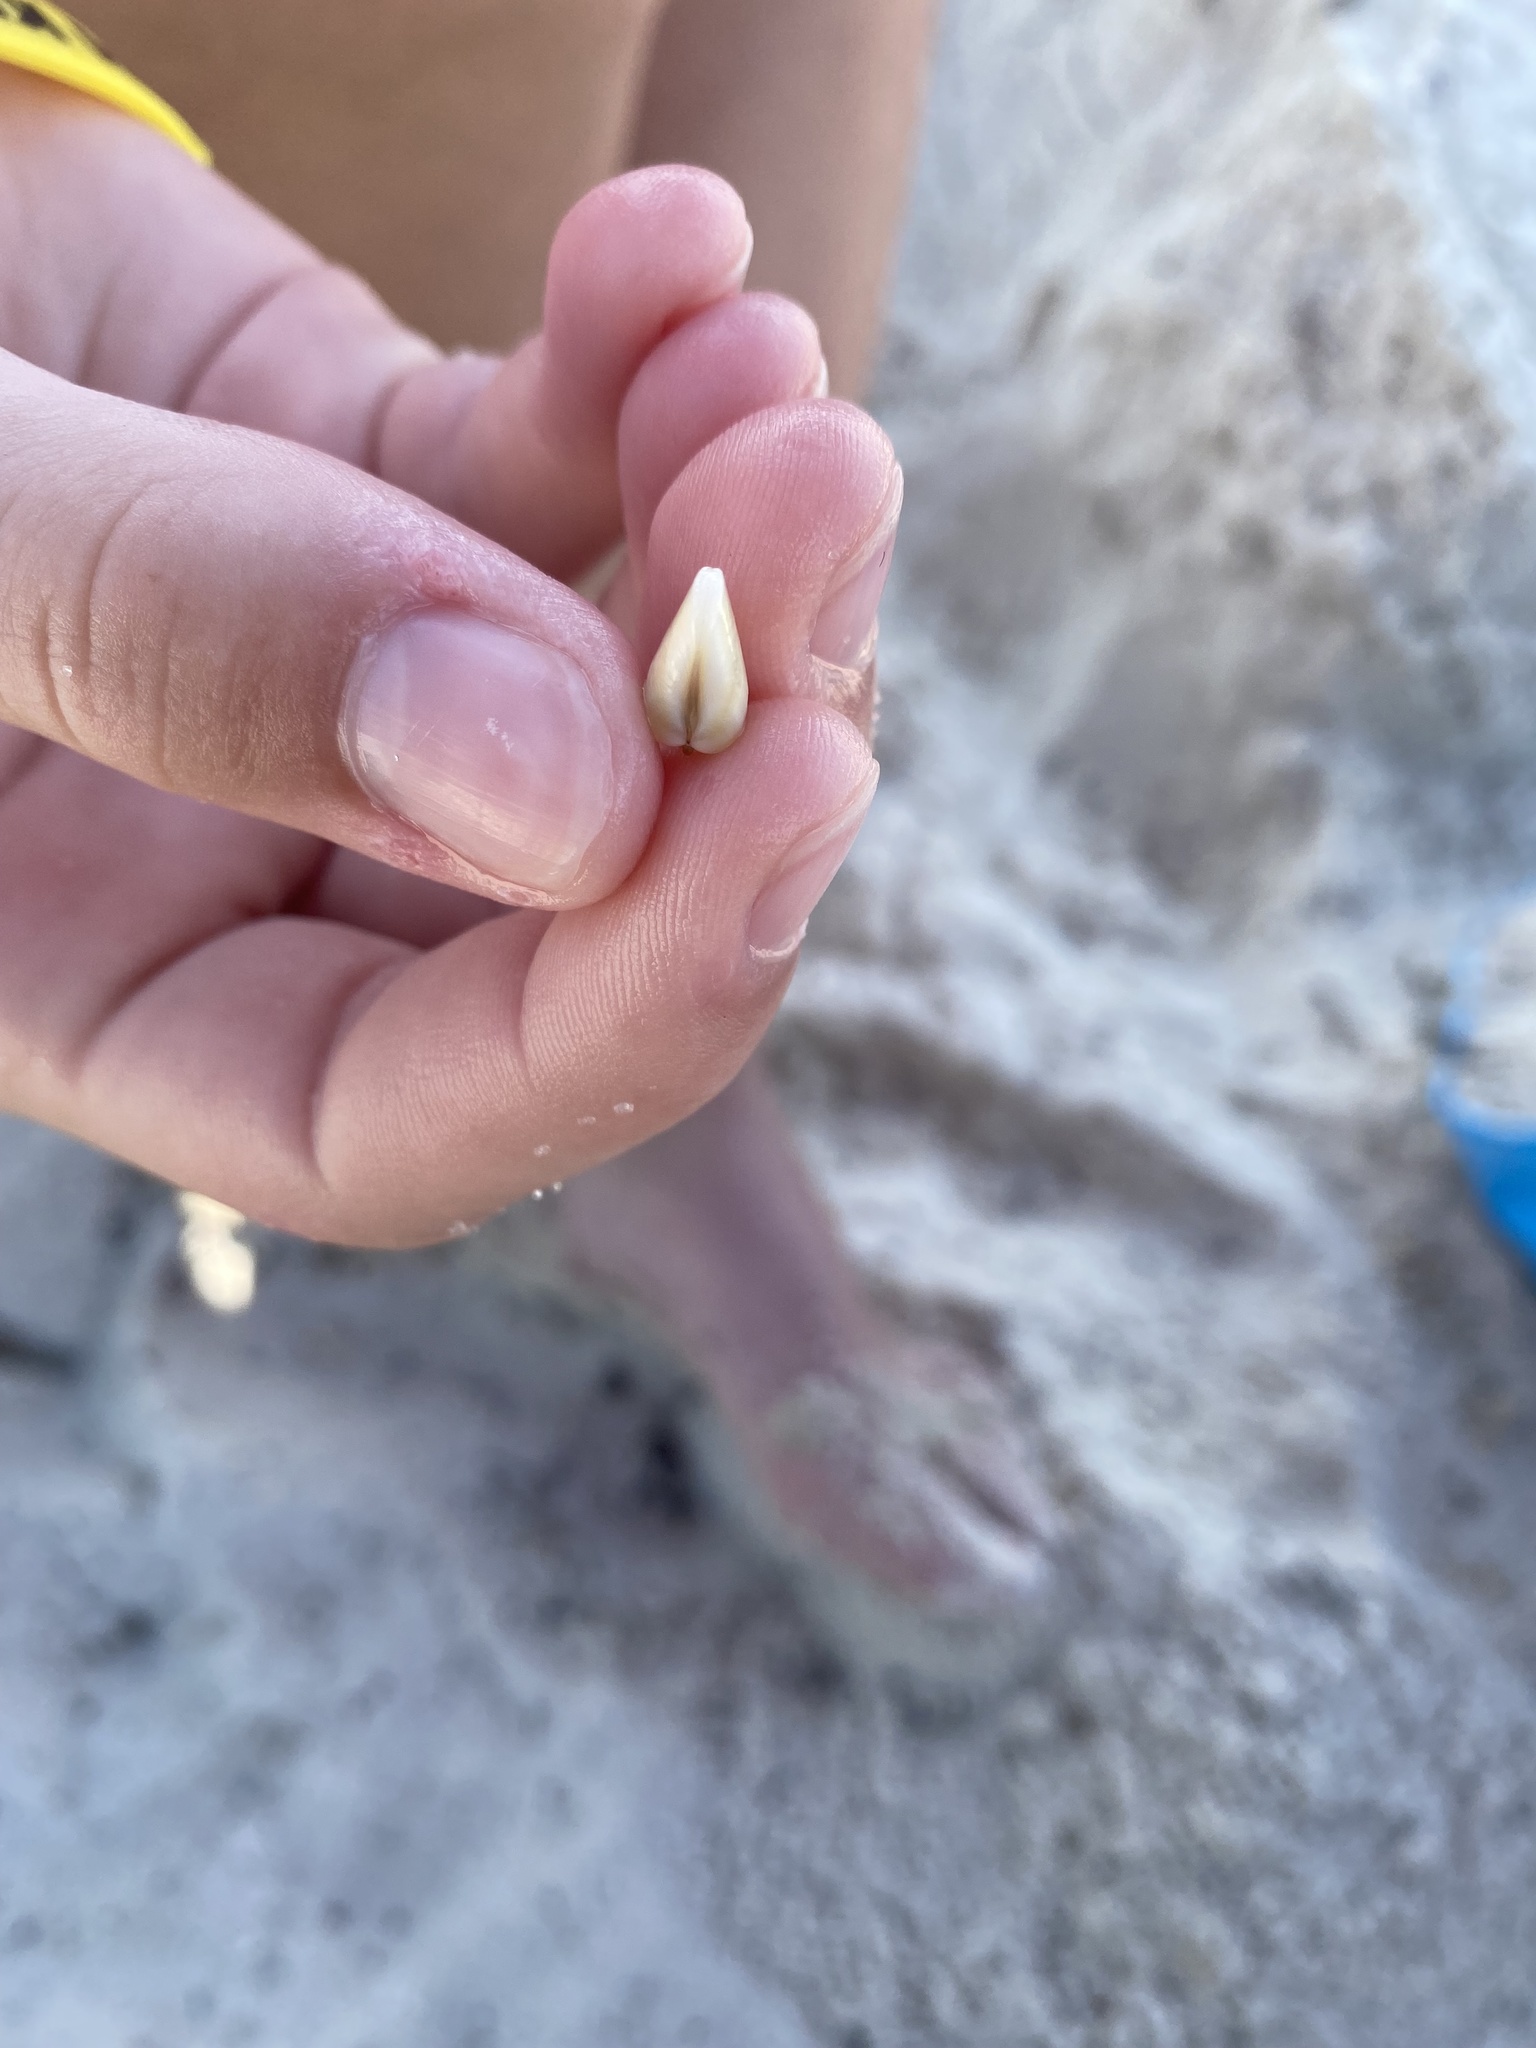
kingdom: Animalia
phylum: Mollusca
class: Bivalvia
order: Cardiida
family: Donacidae
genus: Donax
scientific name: Donax variabilis
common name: Butterfly shell
